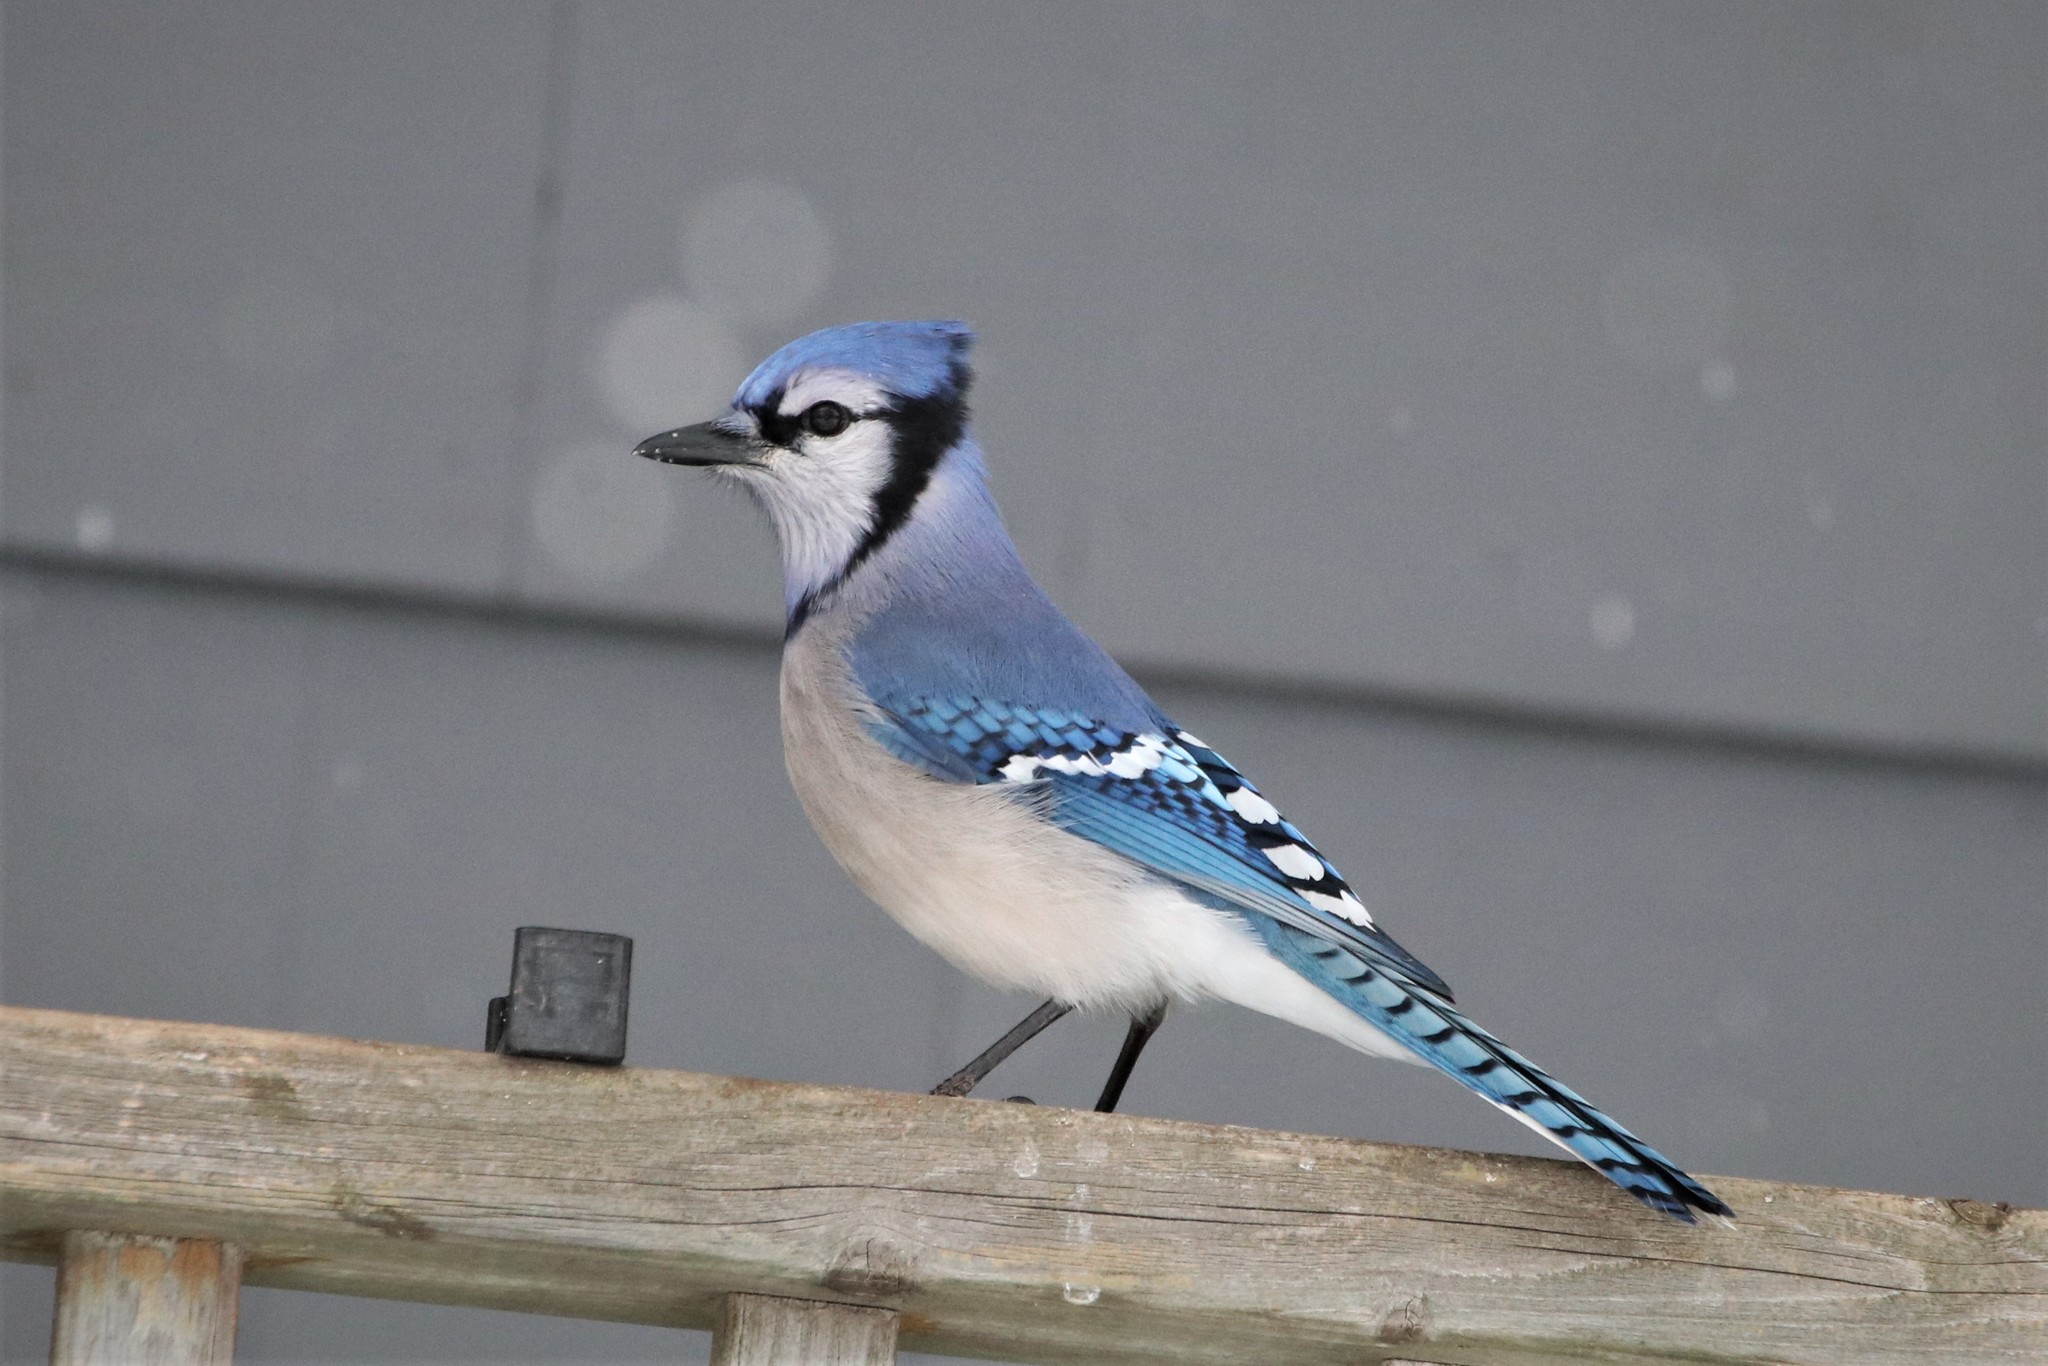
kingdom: Animalia
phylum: Chordata
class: Aves
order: Passeriformes
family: Corvidae
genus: Cyanocitta
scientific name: Cyanocitta cristata
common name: Blue jay
